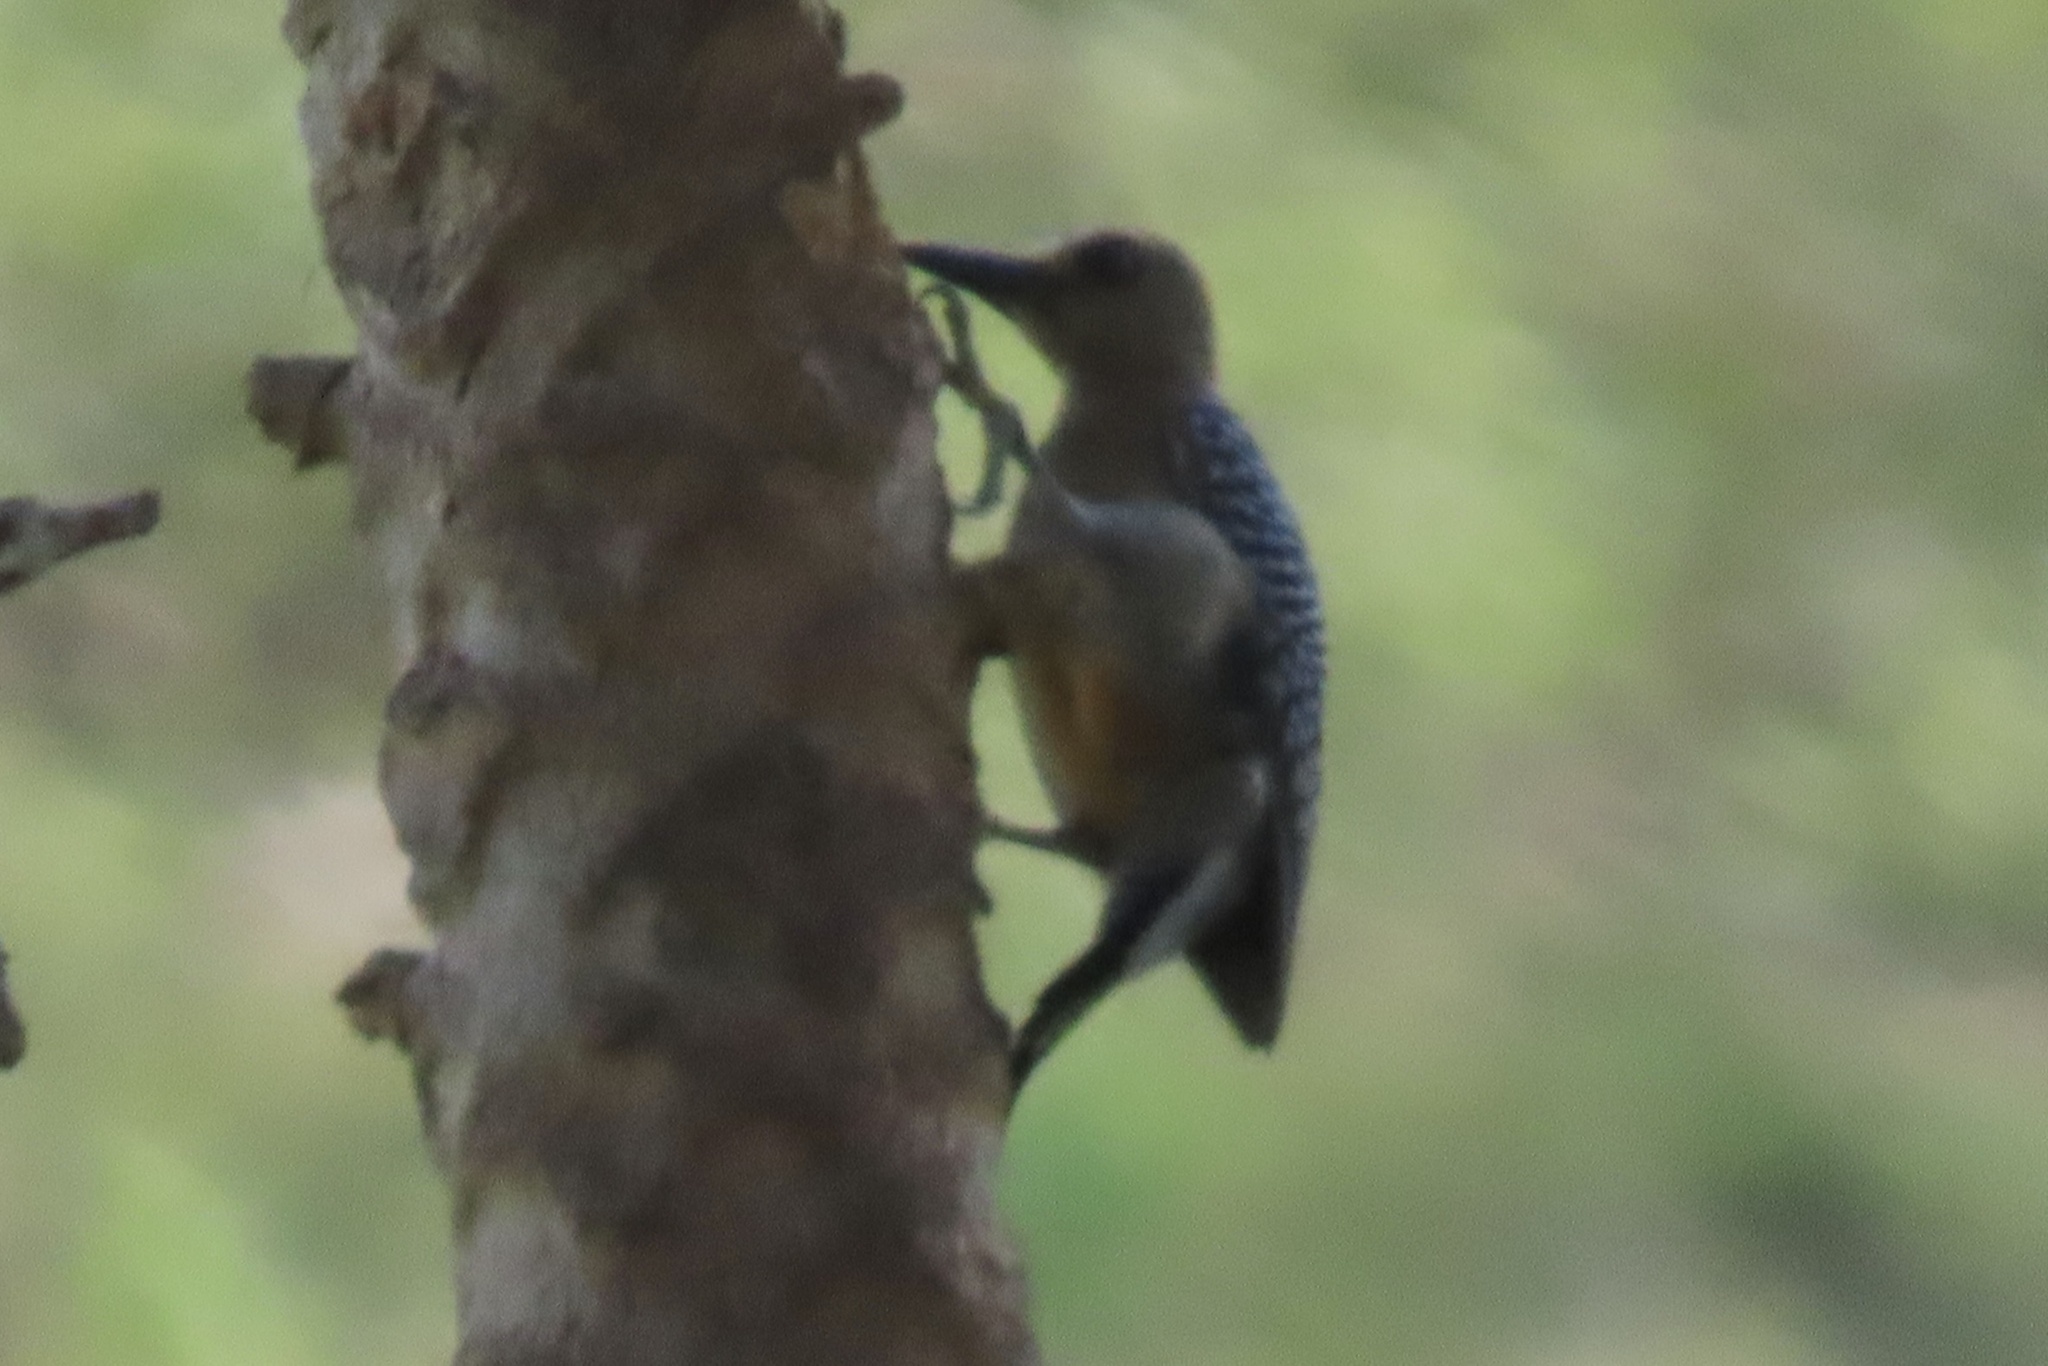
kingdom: Animalia
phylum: Chordata
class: Aves
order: Piciformes
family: Picidae
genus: Melanerpes
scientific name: Melanerpes hoffmannii
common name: Hoffmann's woodpecker
